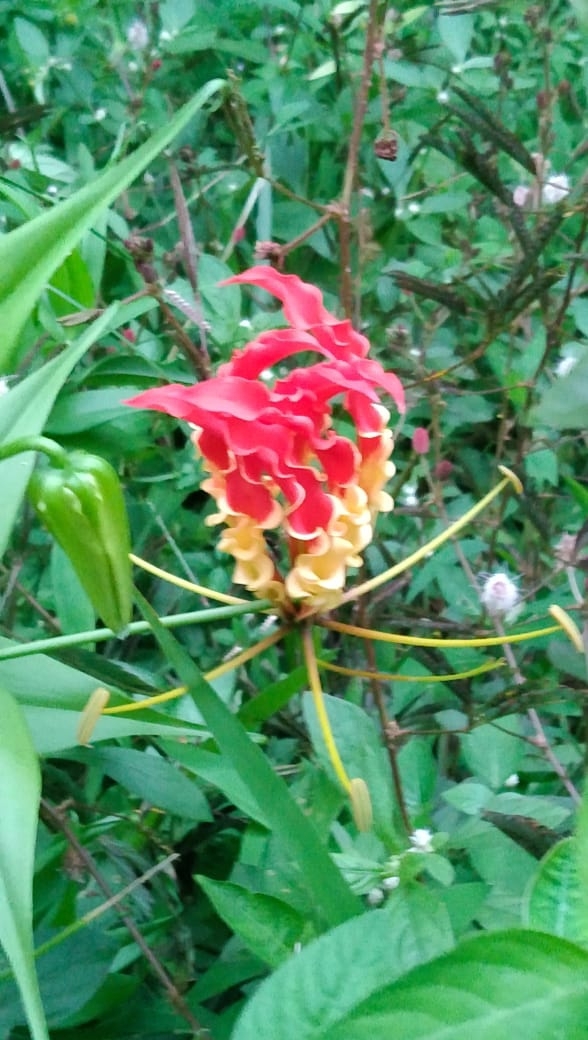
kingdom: Plantae
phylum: Tracheophyta
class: Liliopsida
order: Liliales
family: Colchicaceae
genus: Gloriosa
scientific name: Gloriosa superba
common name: Flame lily
